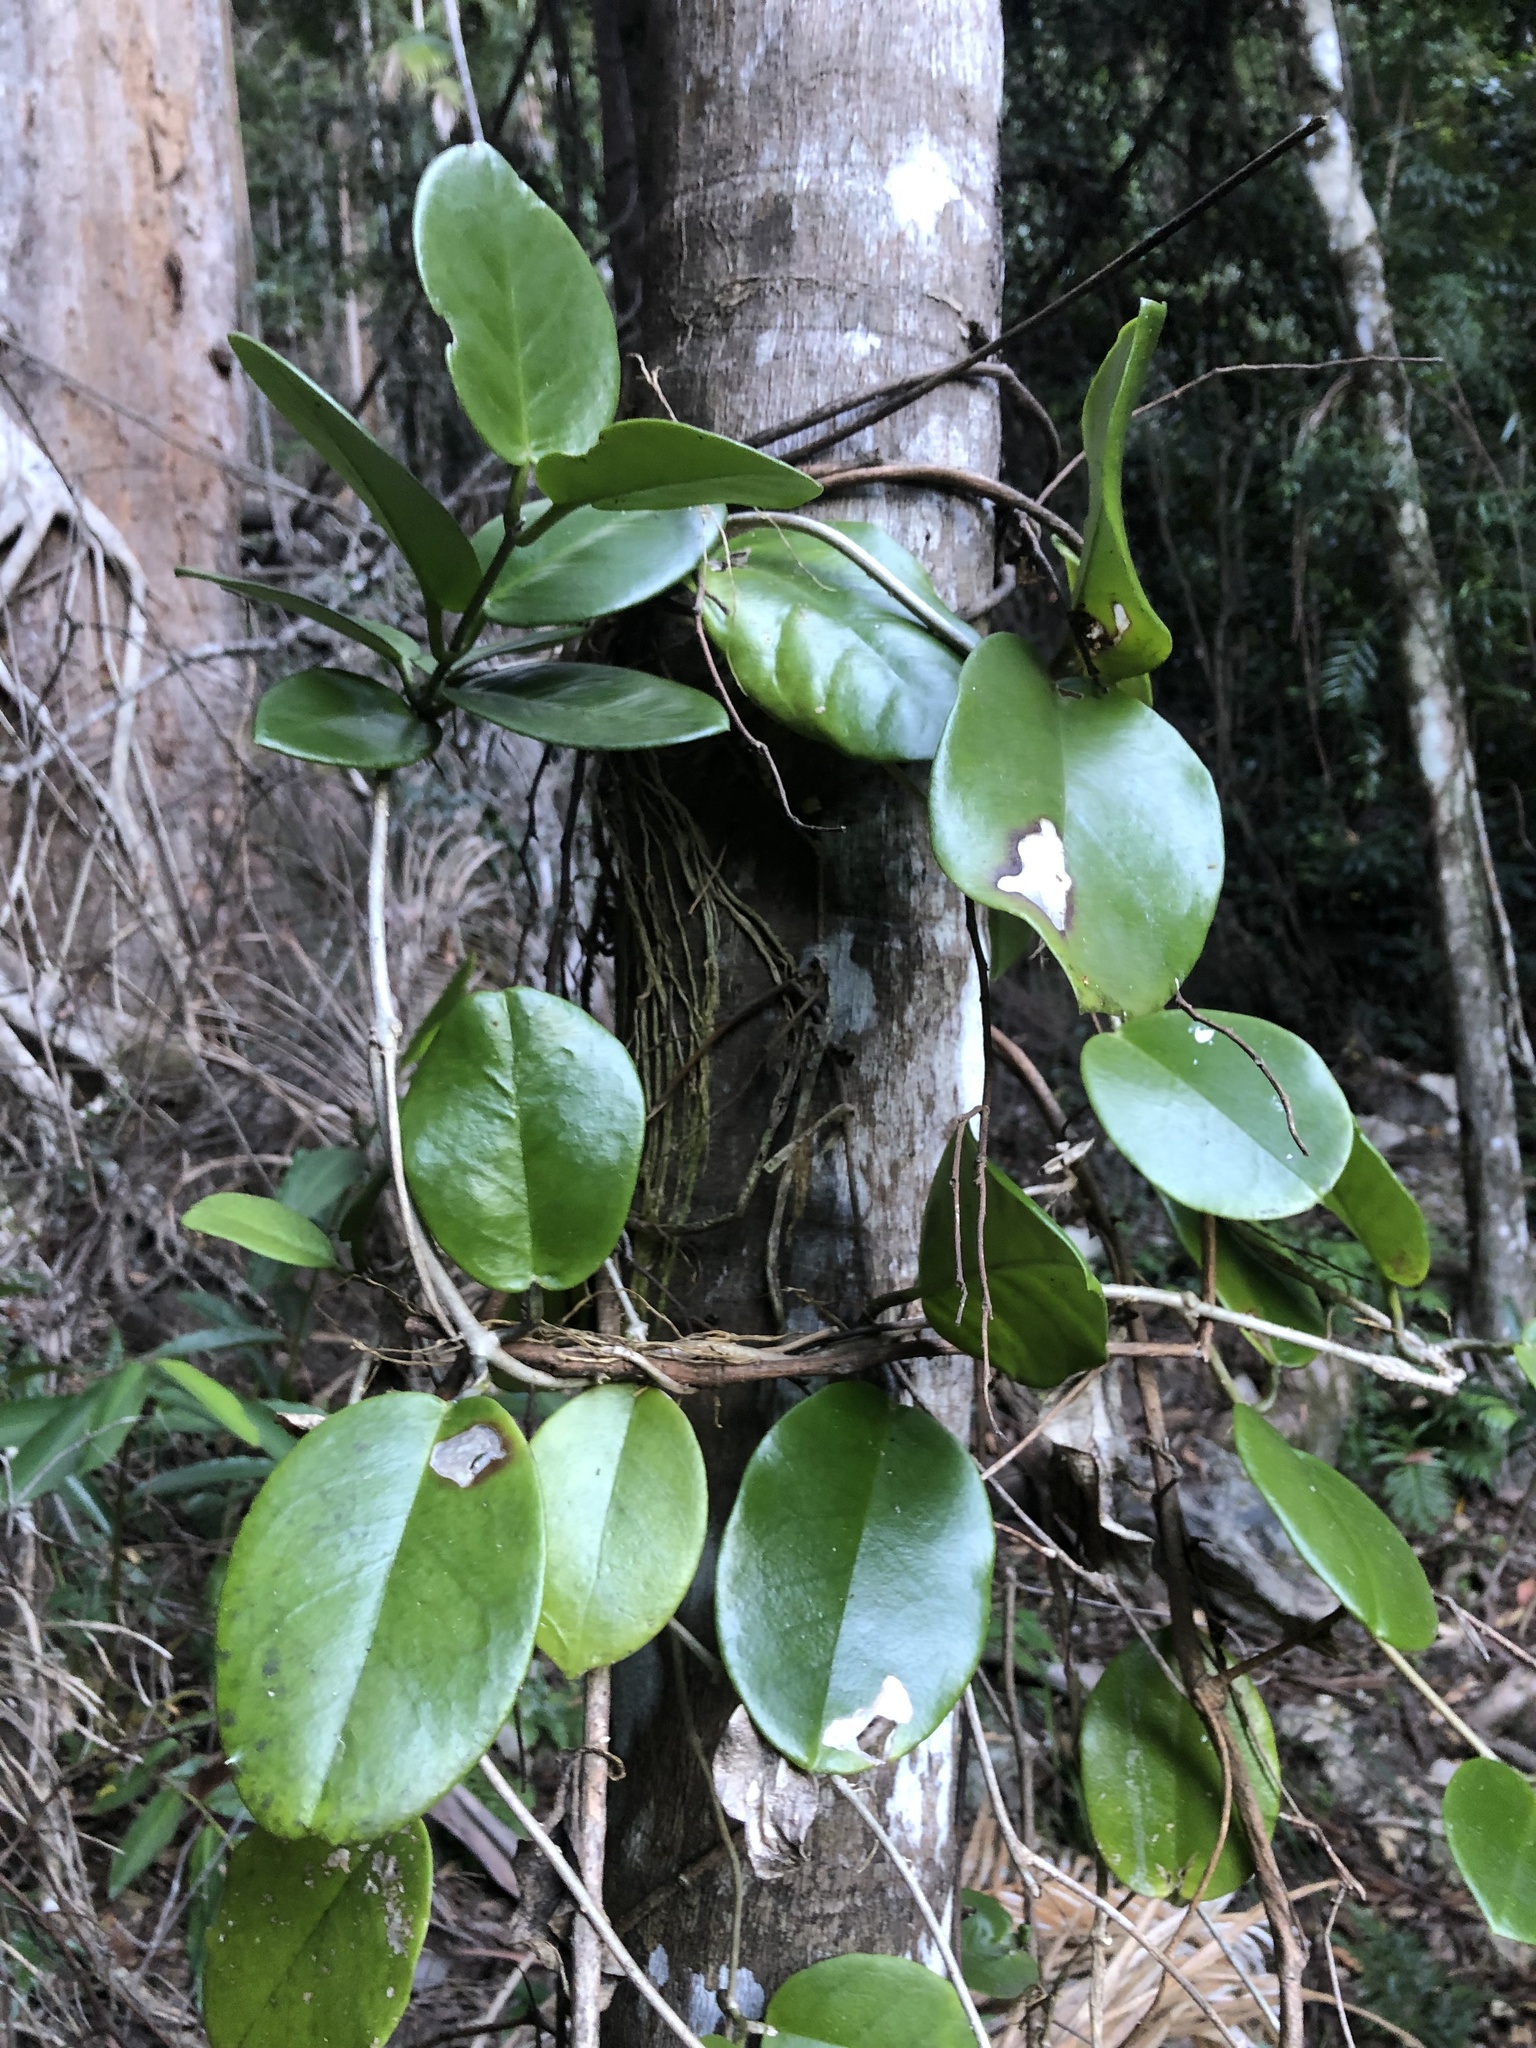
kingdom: Plantae
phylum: Tracheophyta
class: Magnoliopsida
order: Gentianales
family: Apocynaceae
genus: Hoya
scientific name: Hoya australis
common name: Wax flower
